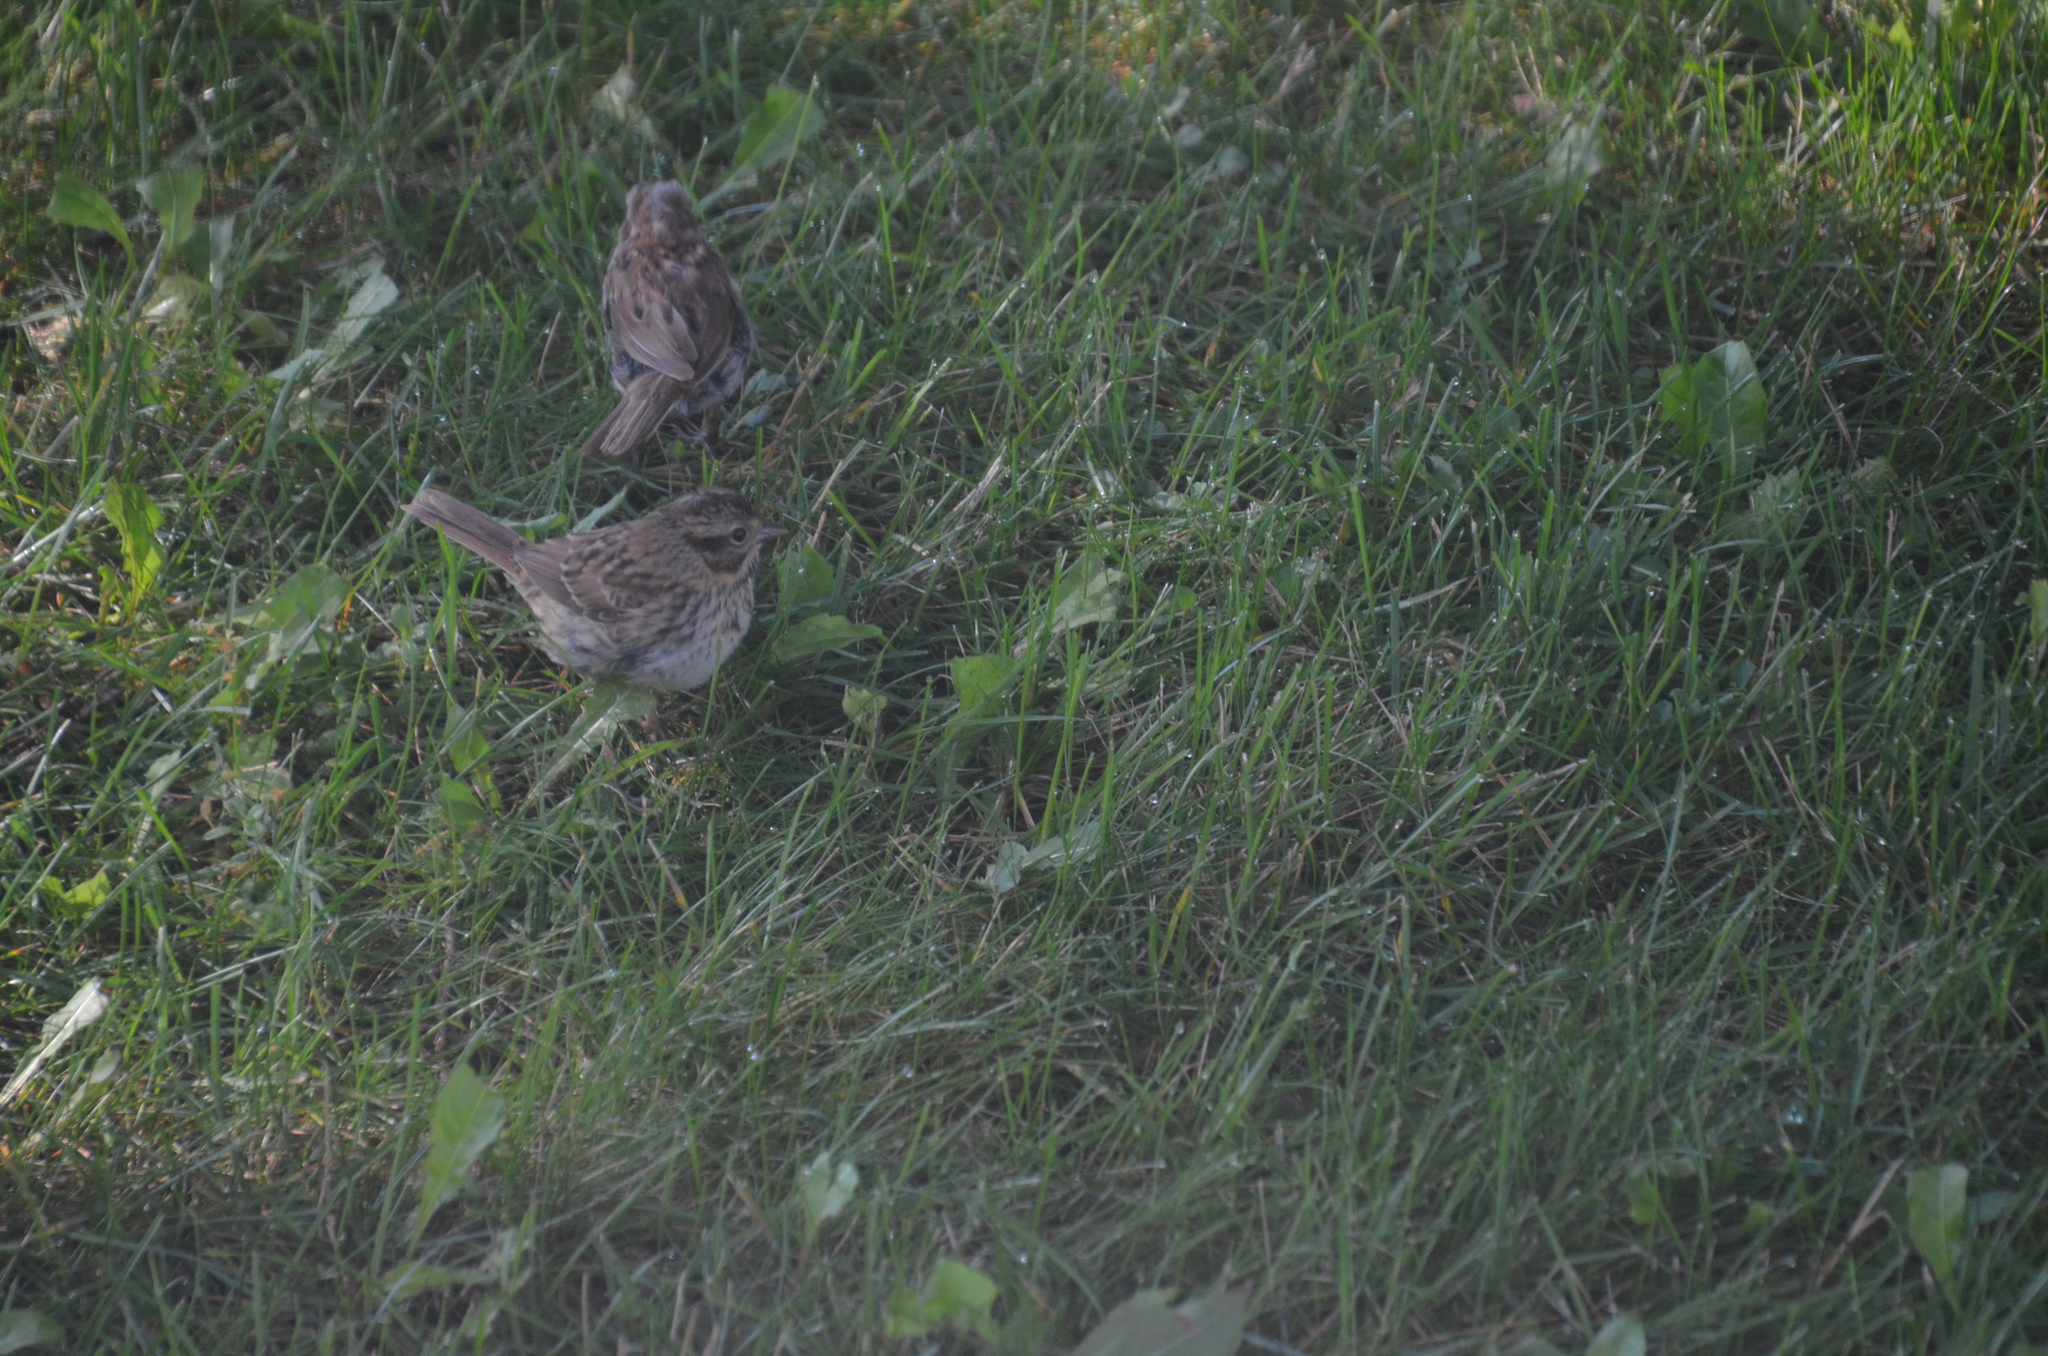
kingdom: Animalia
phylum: Chordata
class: Aves
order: Passeriformes
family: Passerellidae
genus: Melospiza
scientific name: Melospiza melodia
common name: Song sparrow
